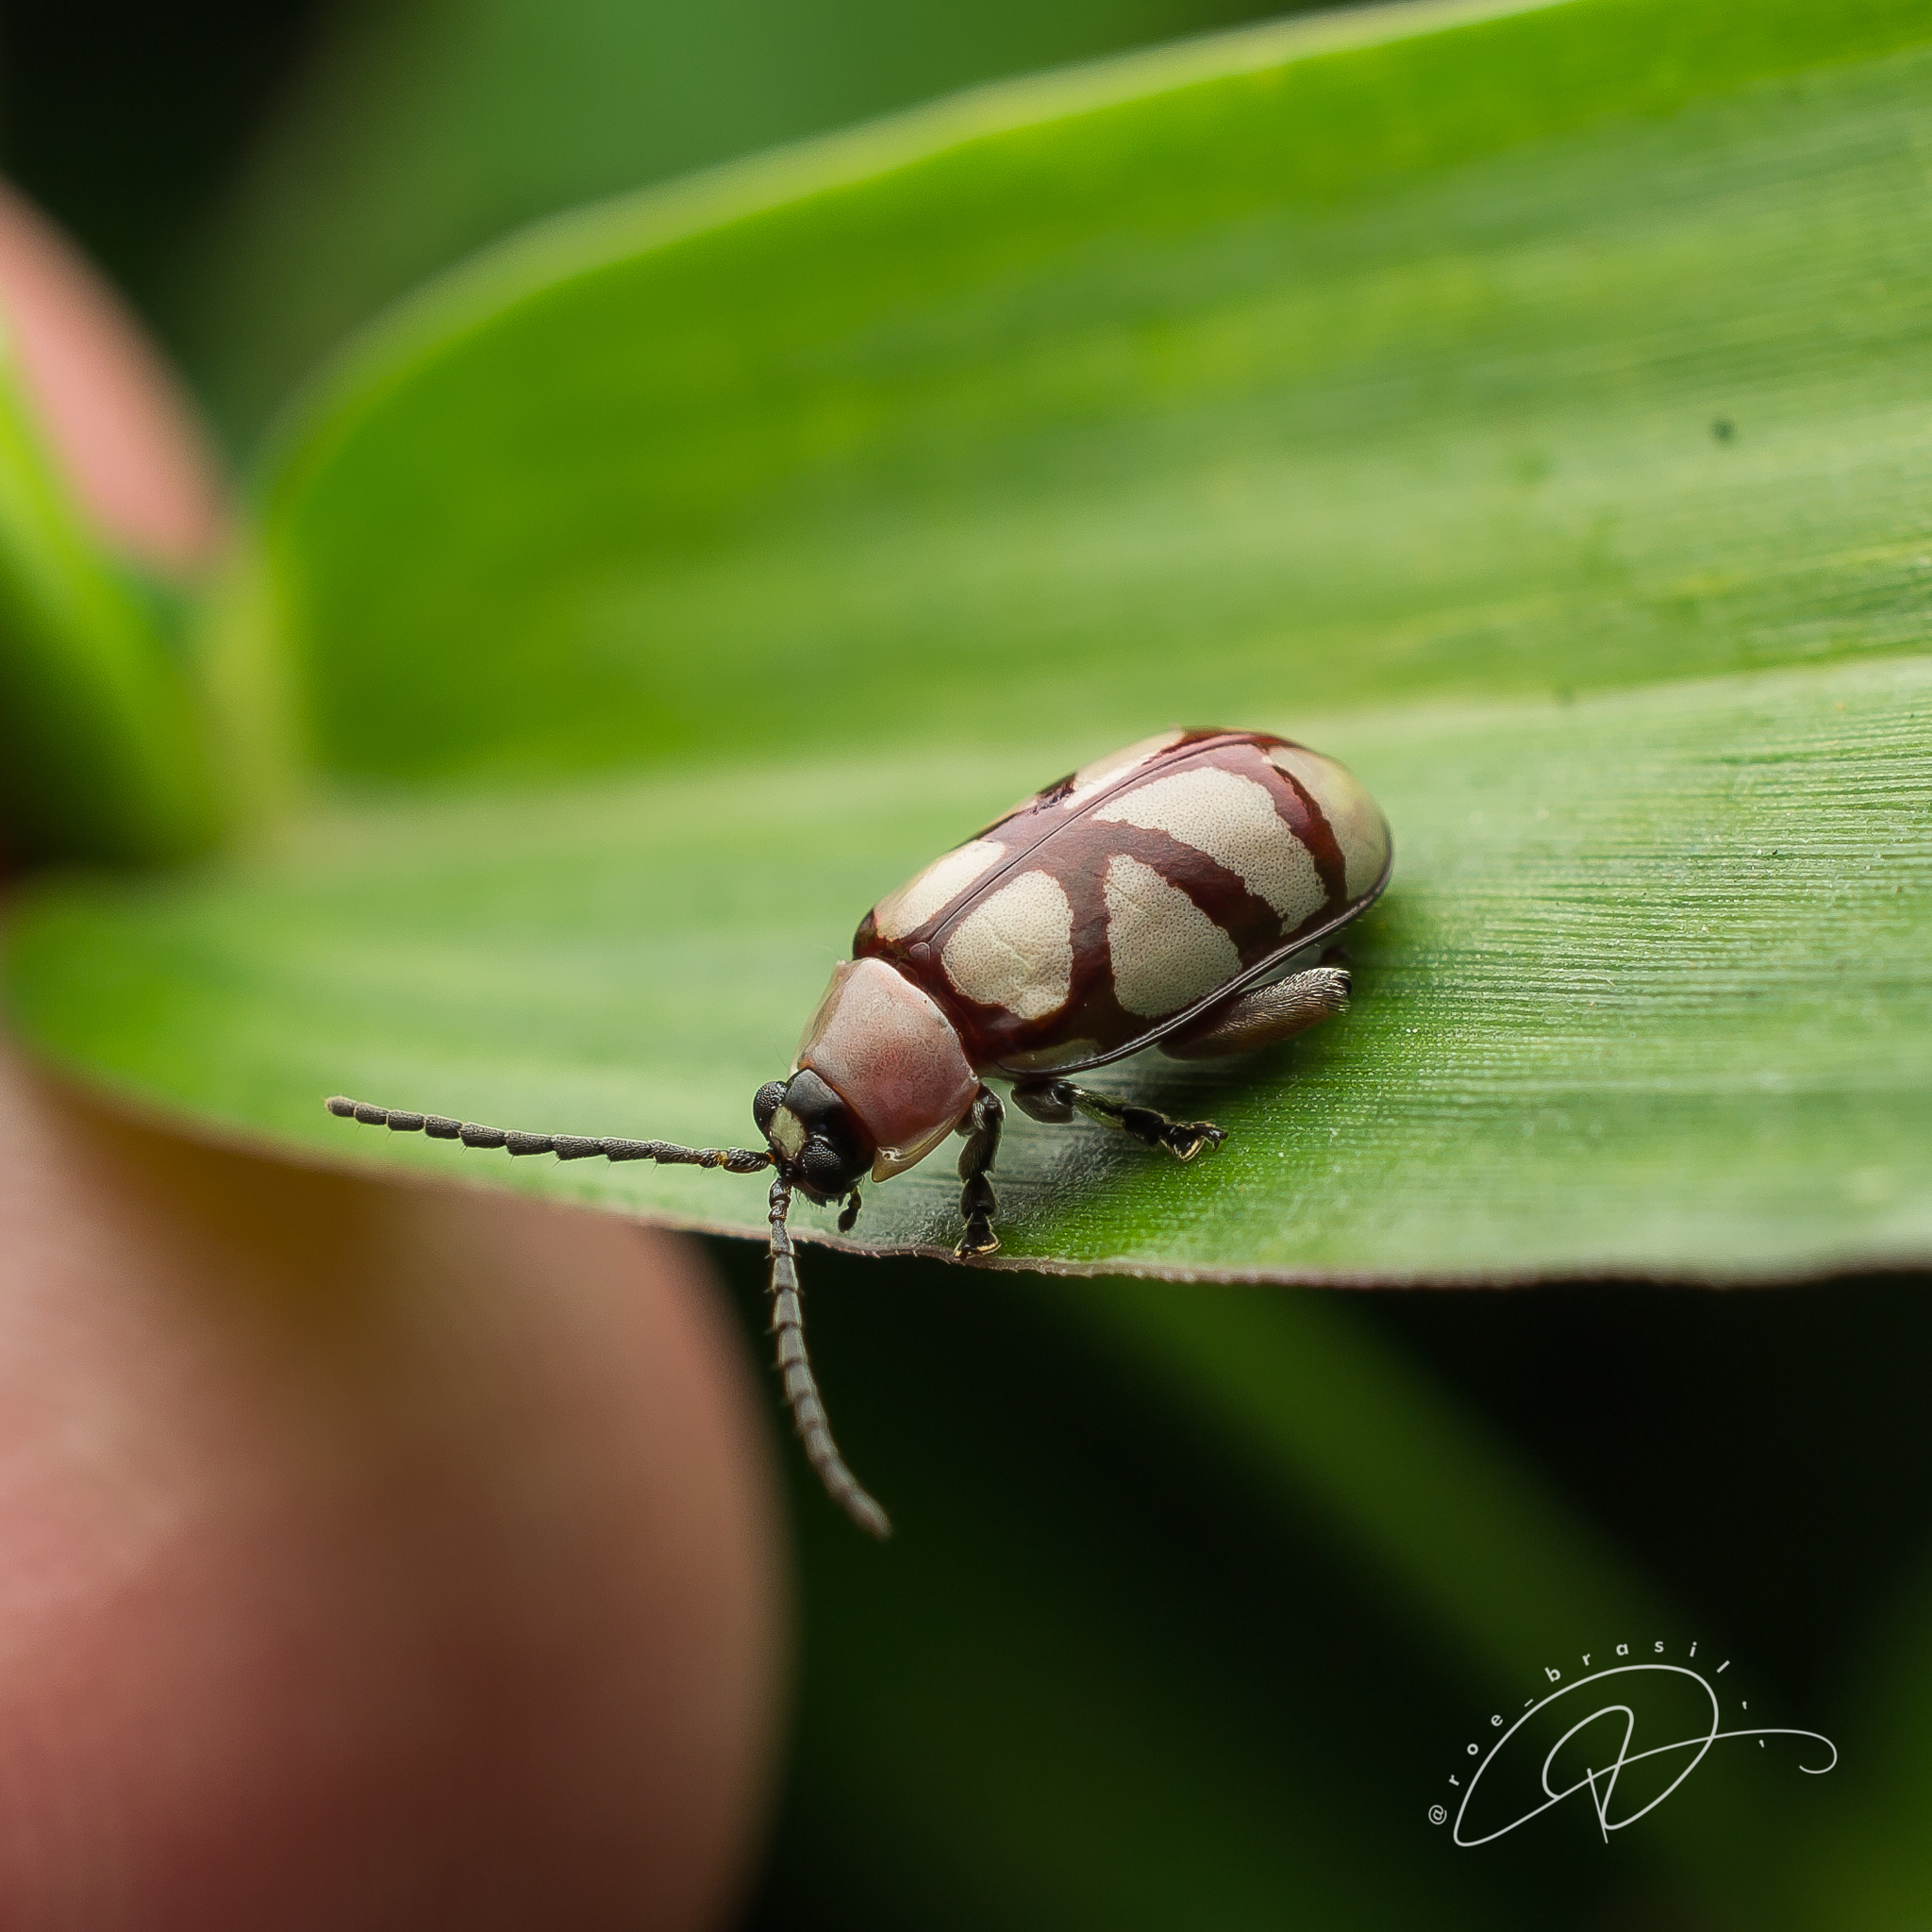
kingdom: Animalia
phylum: Arthropoda
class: Insecta
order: Coleoptera
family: Chrysomelidae
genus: Omophoita
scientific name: Omophoita
